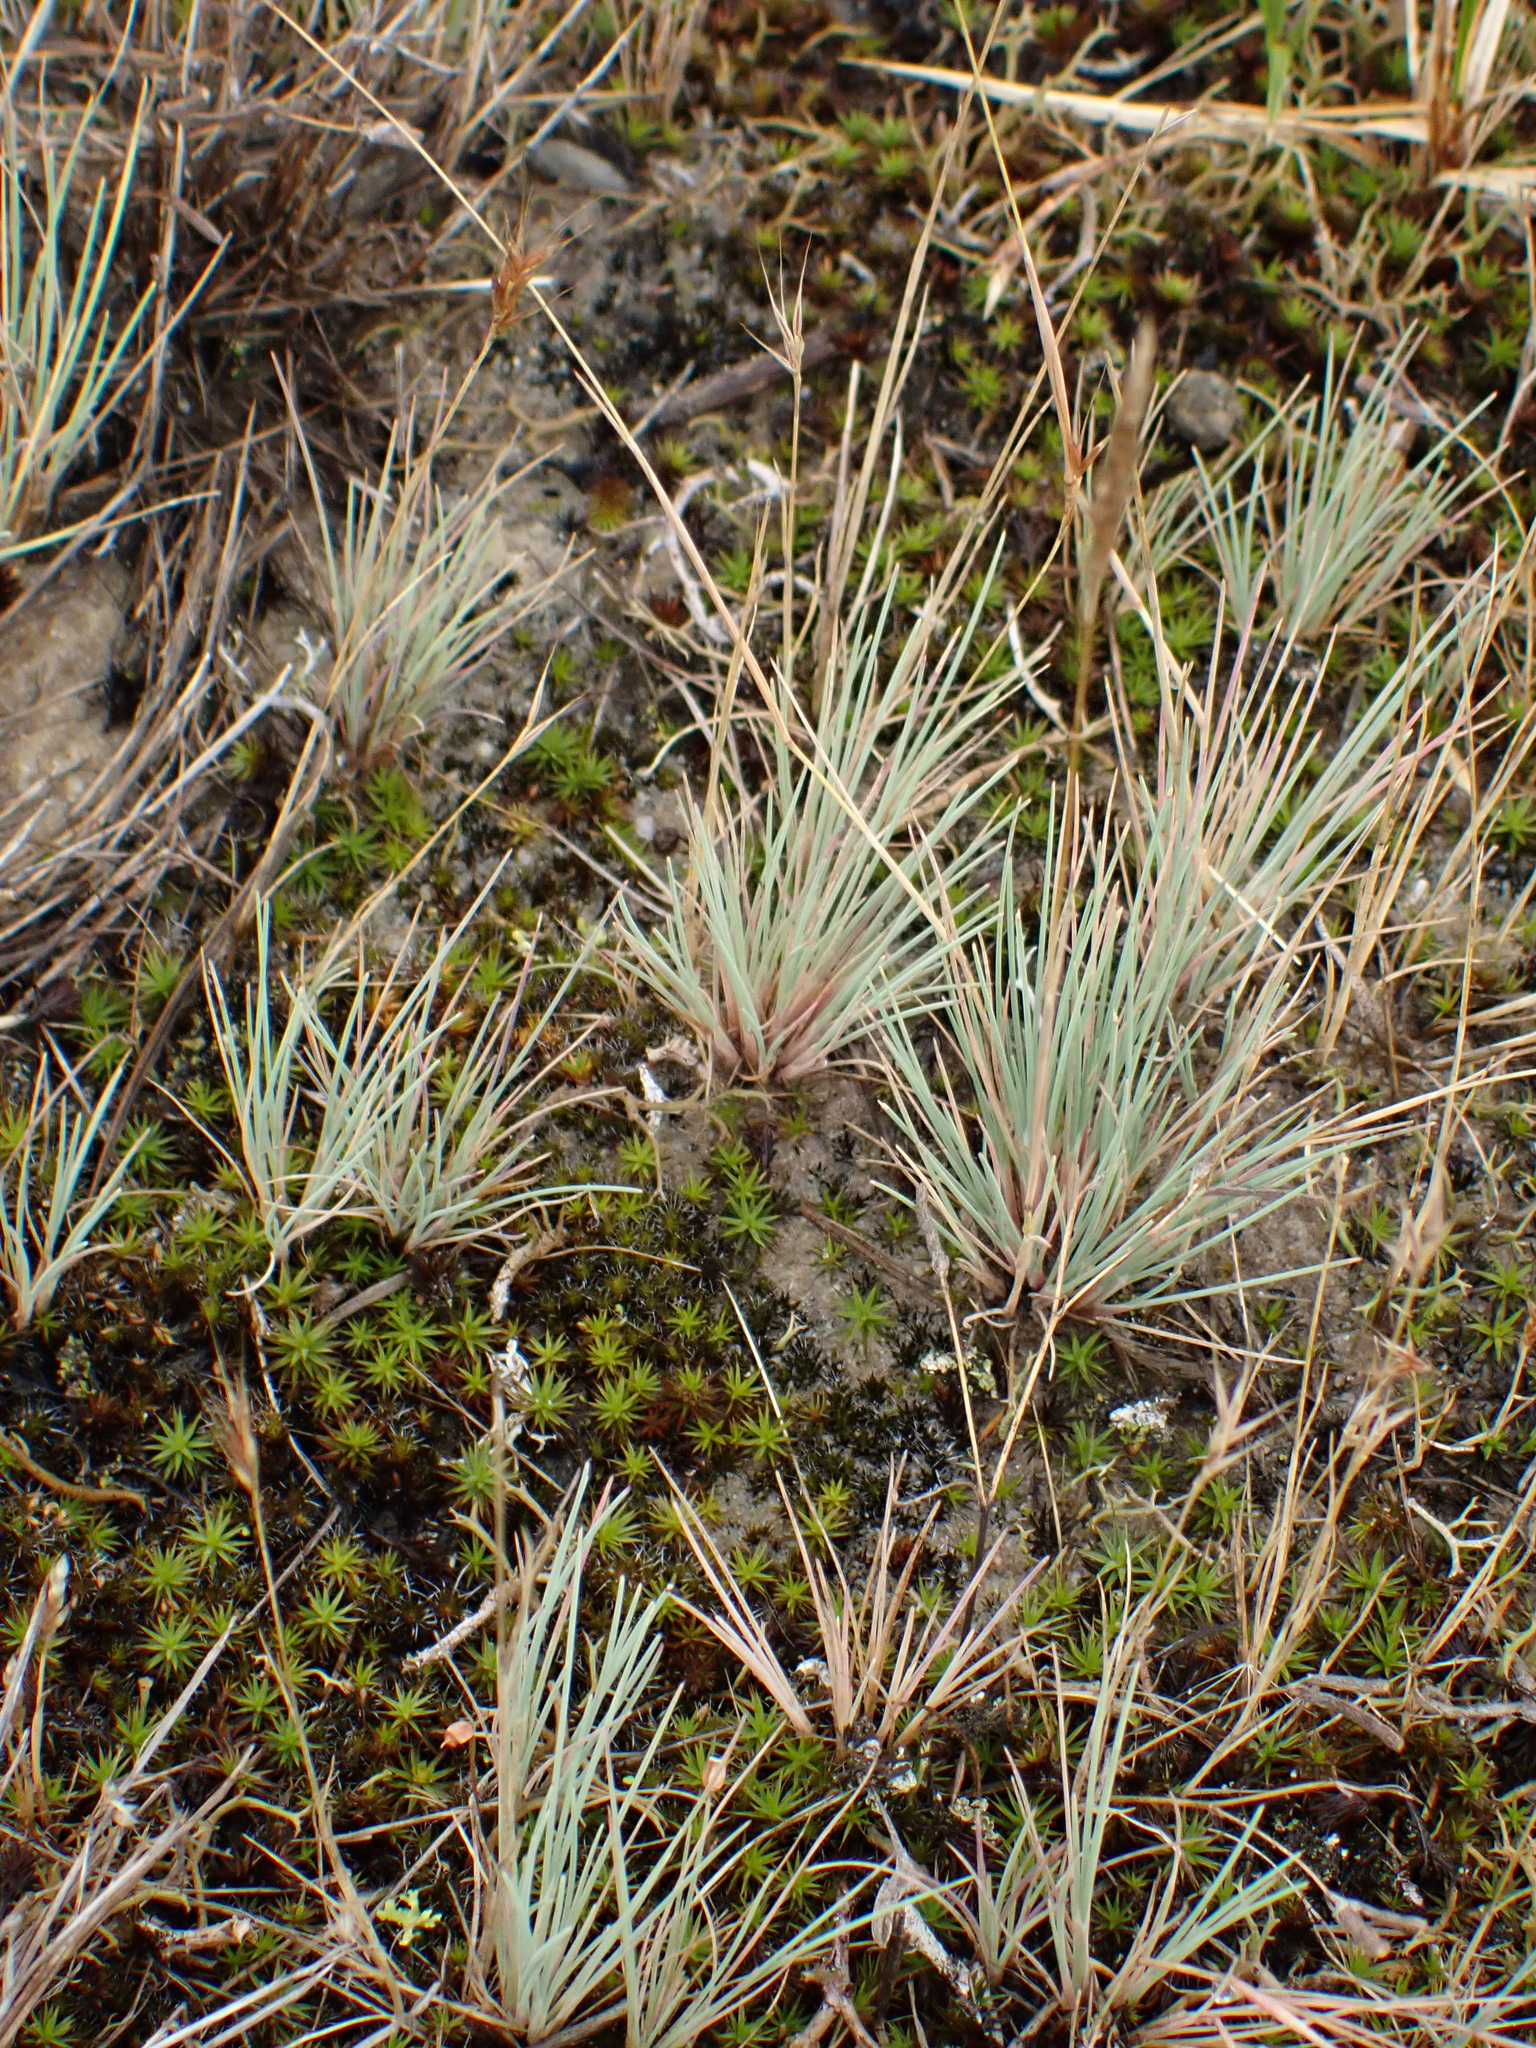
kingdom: Plantae
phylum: Tracheophyta
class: Liliopsida
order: Poales
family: Poaceae
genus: Corynephorus
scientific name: Corynephorus canescens
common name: Grey hair-grass
